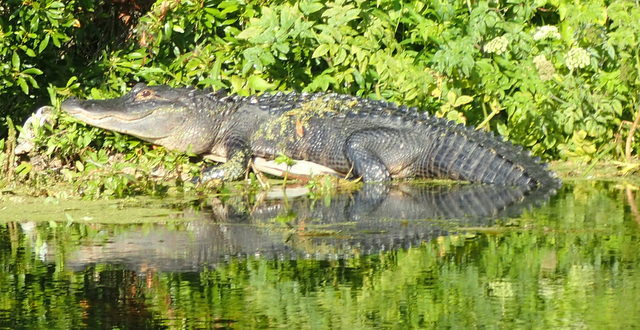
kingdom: Animalia
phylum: Chordata
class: Crocodylia
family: Alligatoridae
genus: Alligator
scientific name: Alligator mississippiensis
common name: American alligator
